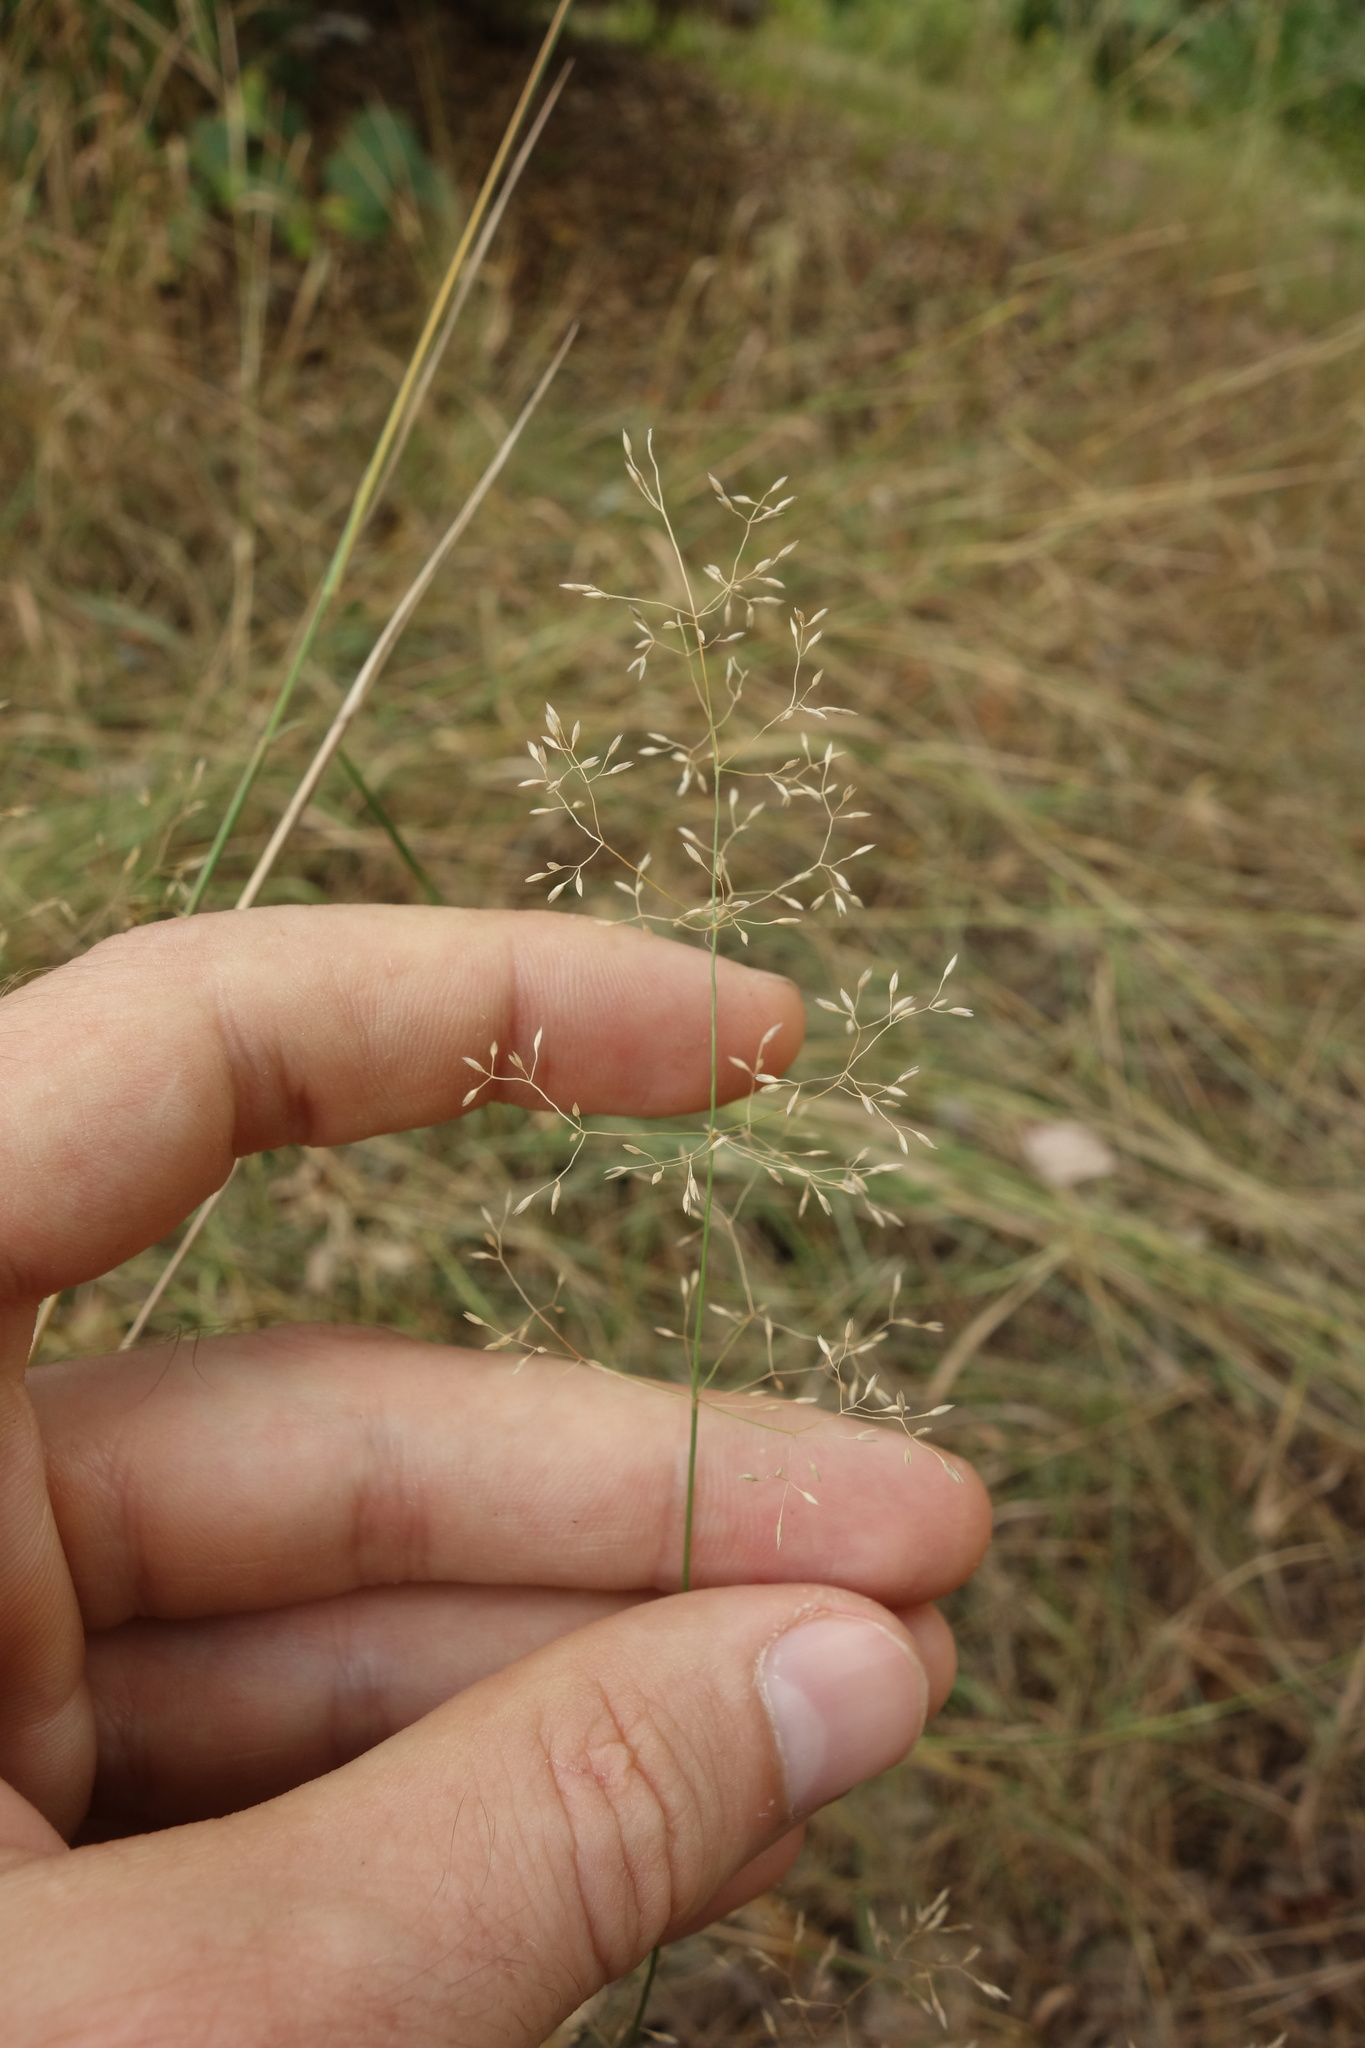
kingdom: Plantae
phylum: Tracheophyta
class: Liliopsida
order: Poales
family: Poaceae
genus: Agrostis
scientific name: Agrostis capillaris
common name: Colonial bentgrass
